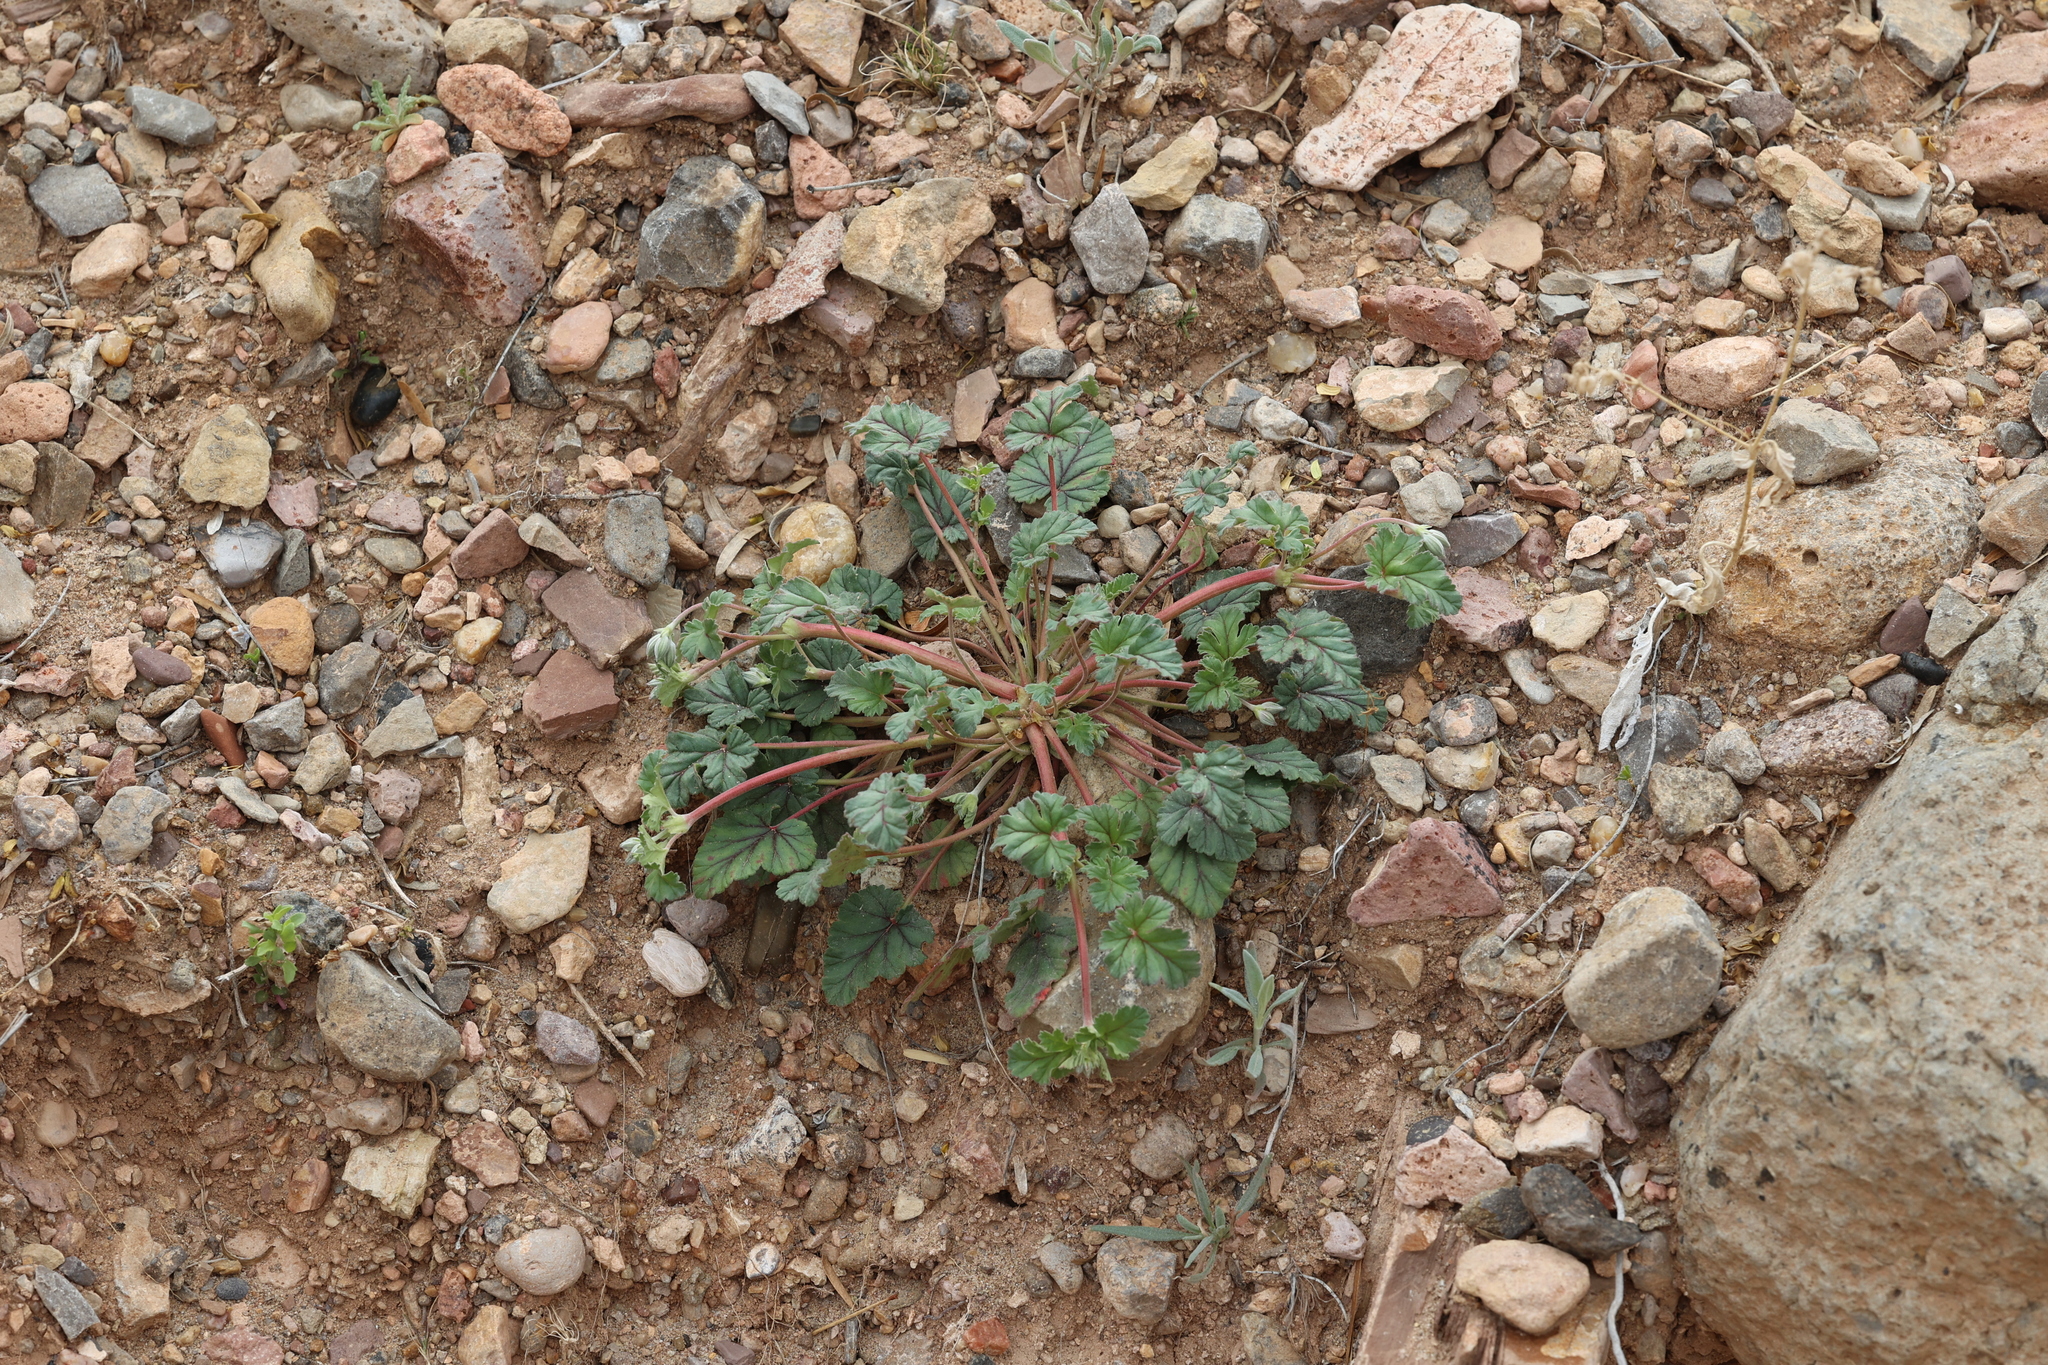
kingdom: Plantae
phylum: Tracheophyta
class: Magnoliopsida
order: Geraniales
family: Geraniaceae
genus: Erodium
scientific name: Erodium texanum
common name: Texas stork's-bill
